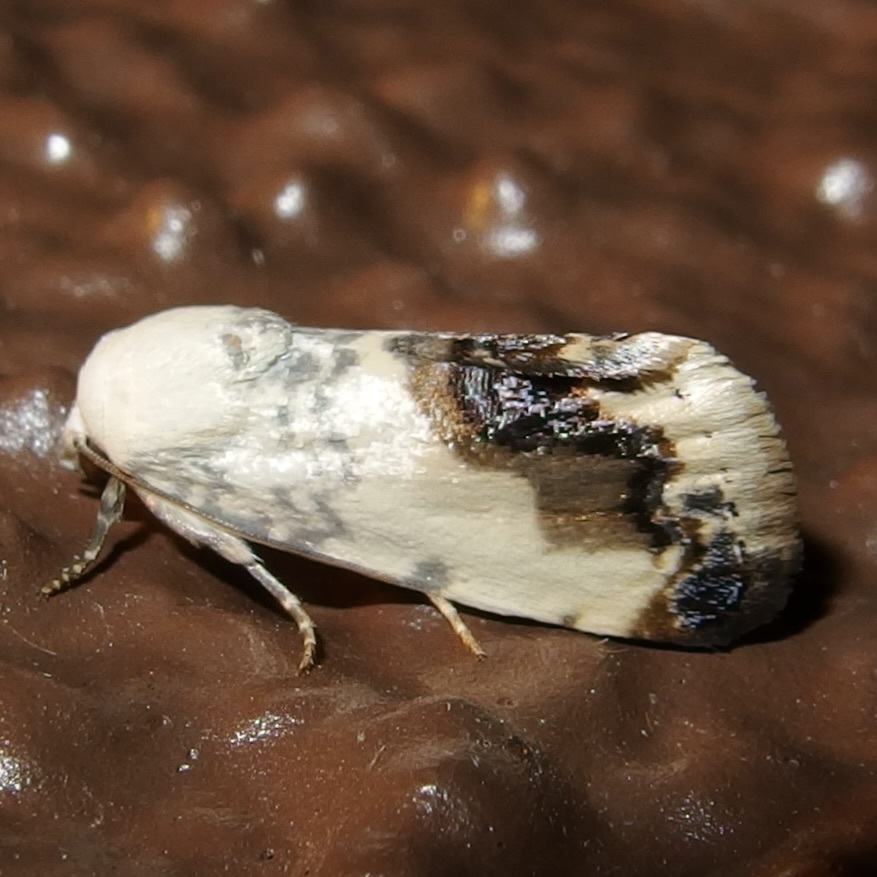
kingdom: Animalia
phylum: Arthropoda
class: Insecta
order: Lepidoptera
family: Noctuidae
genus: Acontia
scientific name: Acontia behrii
